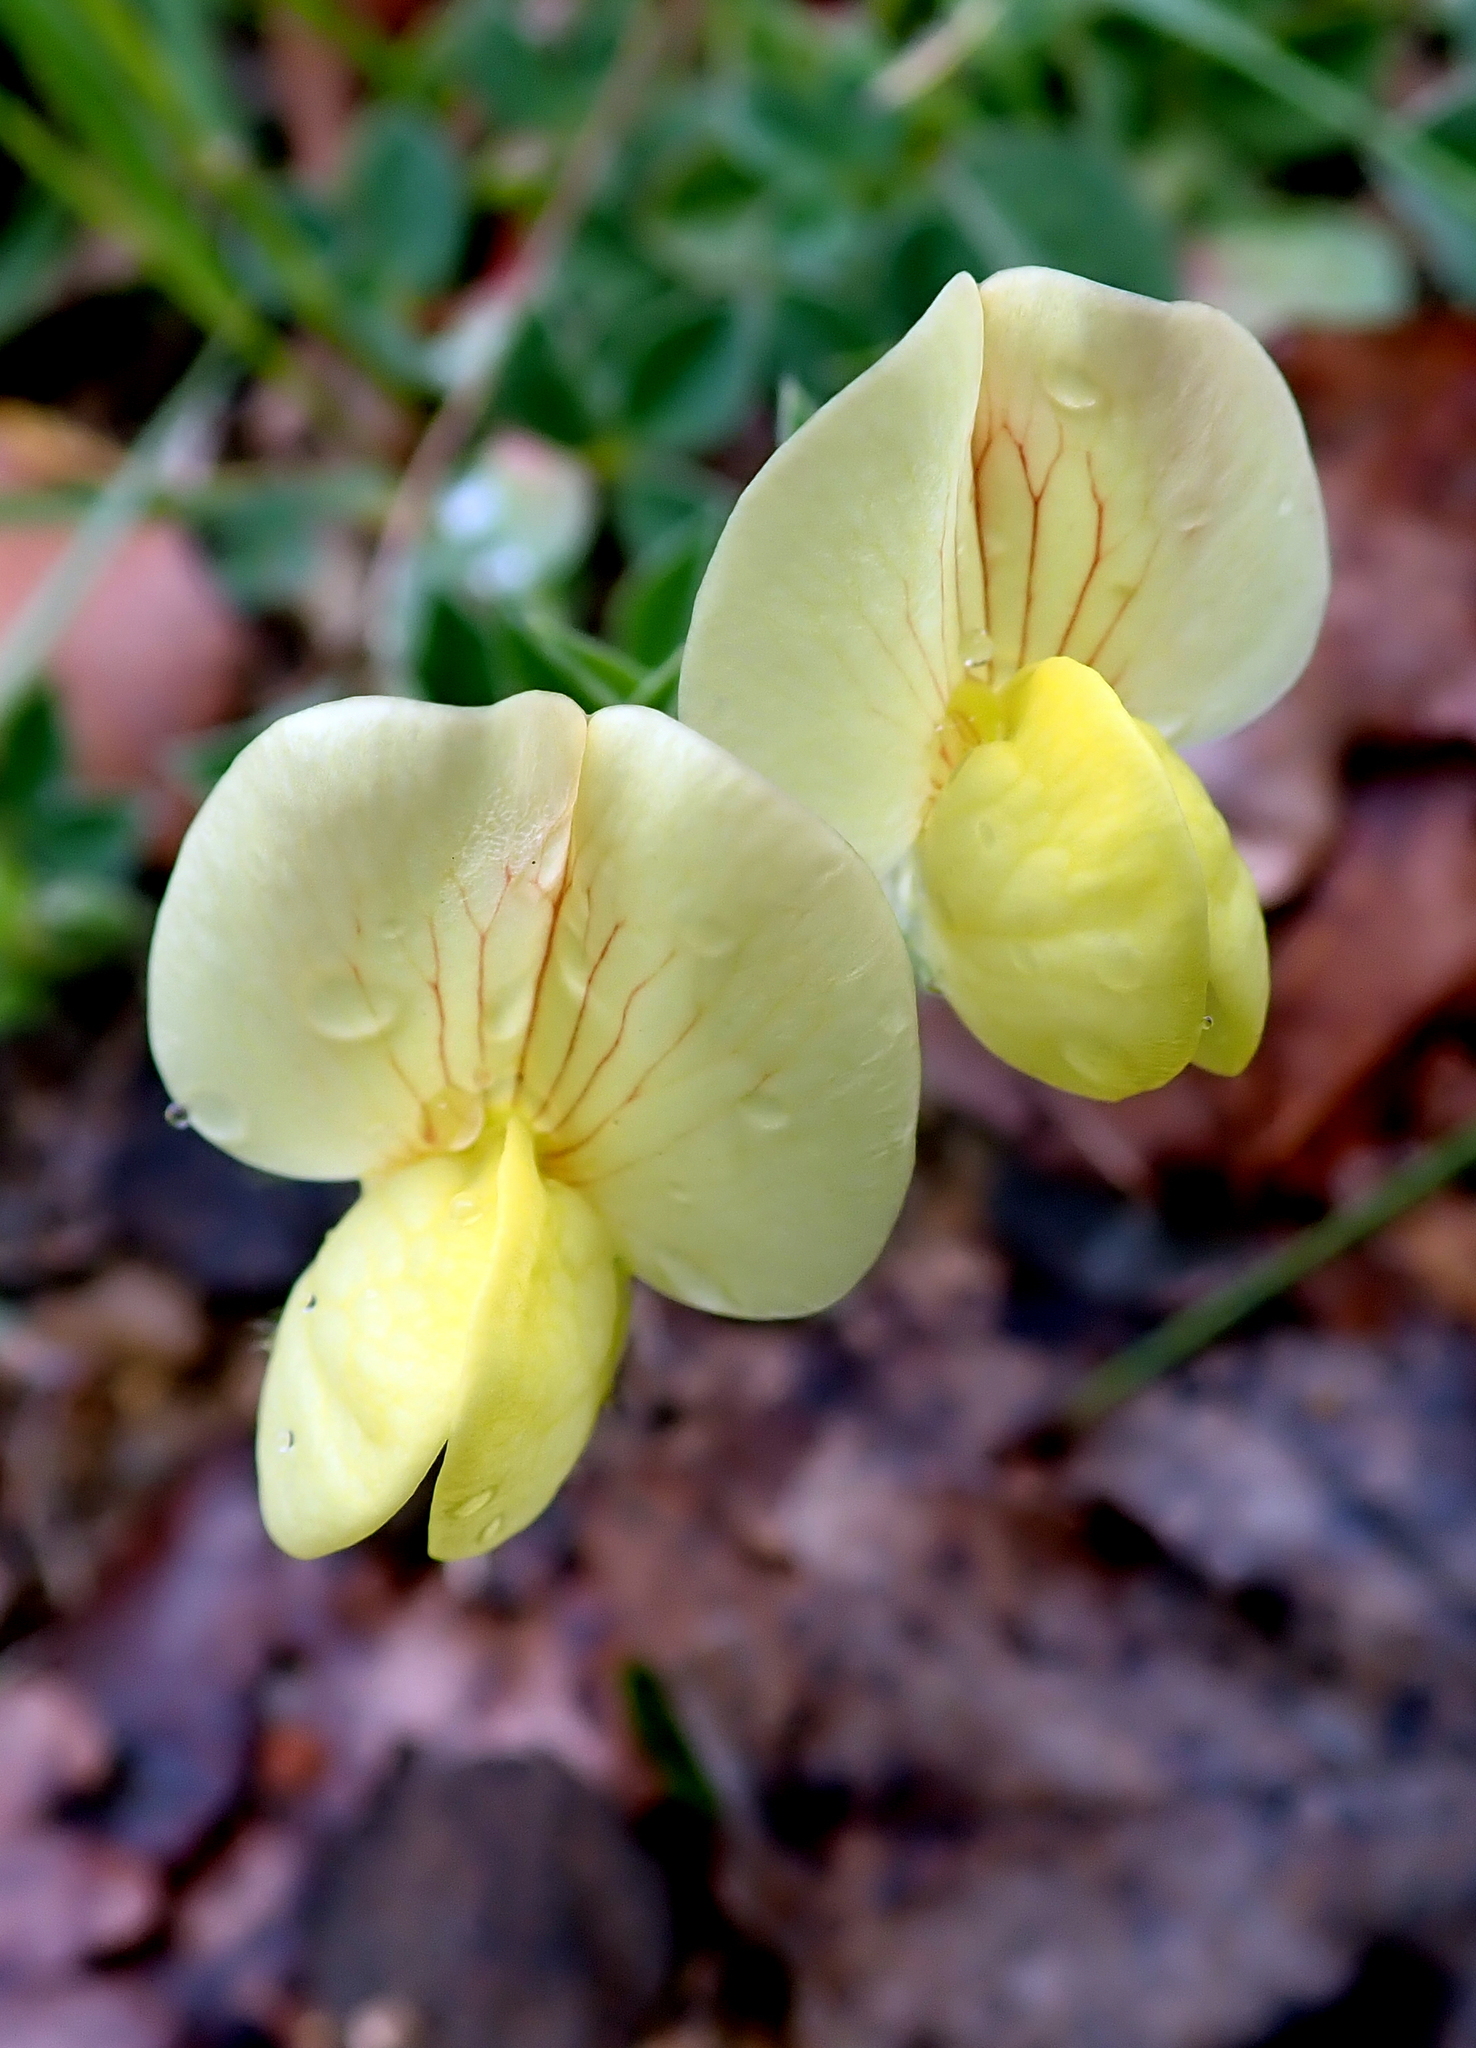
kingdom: Plantae
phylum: Tracheophyta
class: Magnoliopsida
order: Fabales
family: Fabaceae
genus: Lotus
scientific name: Lotus maritimus
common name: Dragon's-teeth
